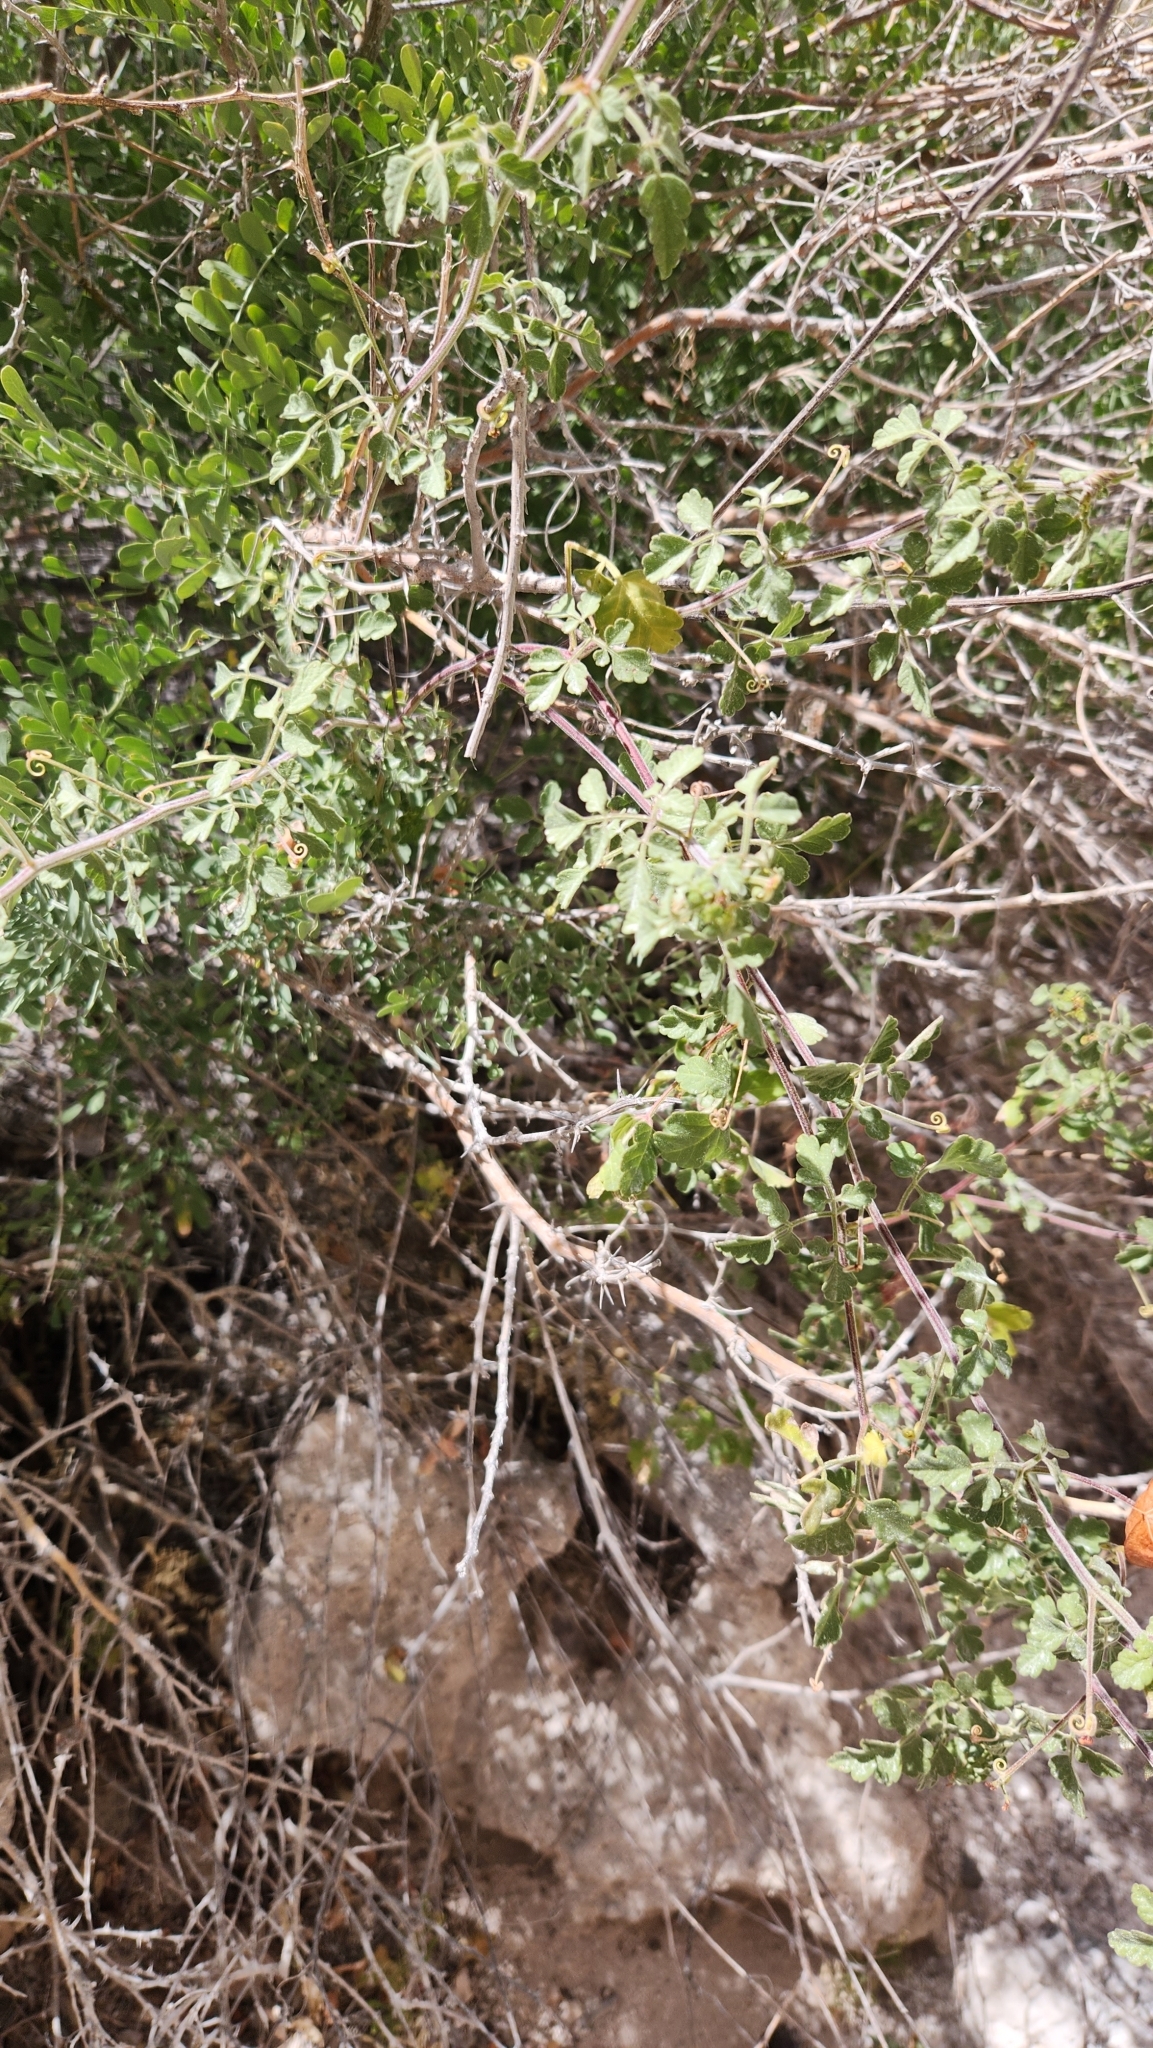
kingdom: Plantae
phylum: Tracheophyta
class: Magnoliopsida
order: Sapindales
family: Sapindaceae
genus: Cardiospermum
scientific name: Cardiospermum corindum
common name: Faux persil
